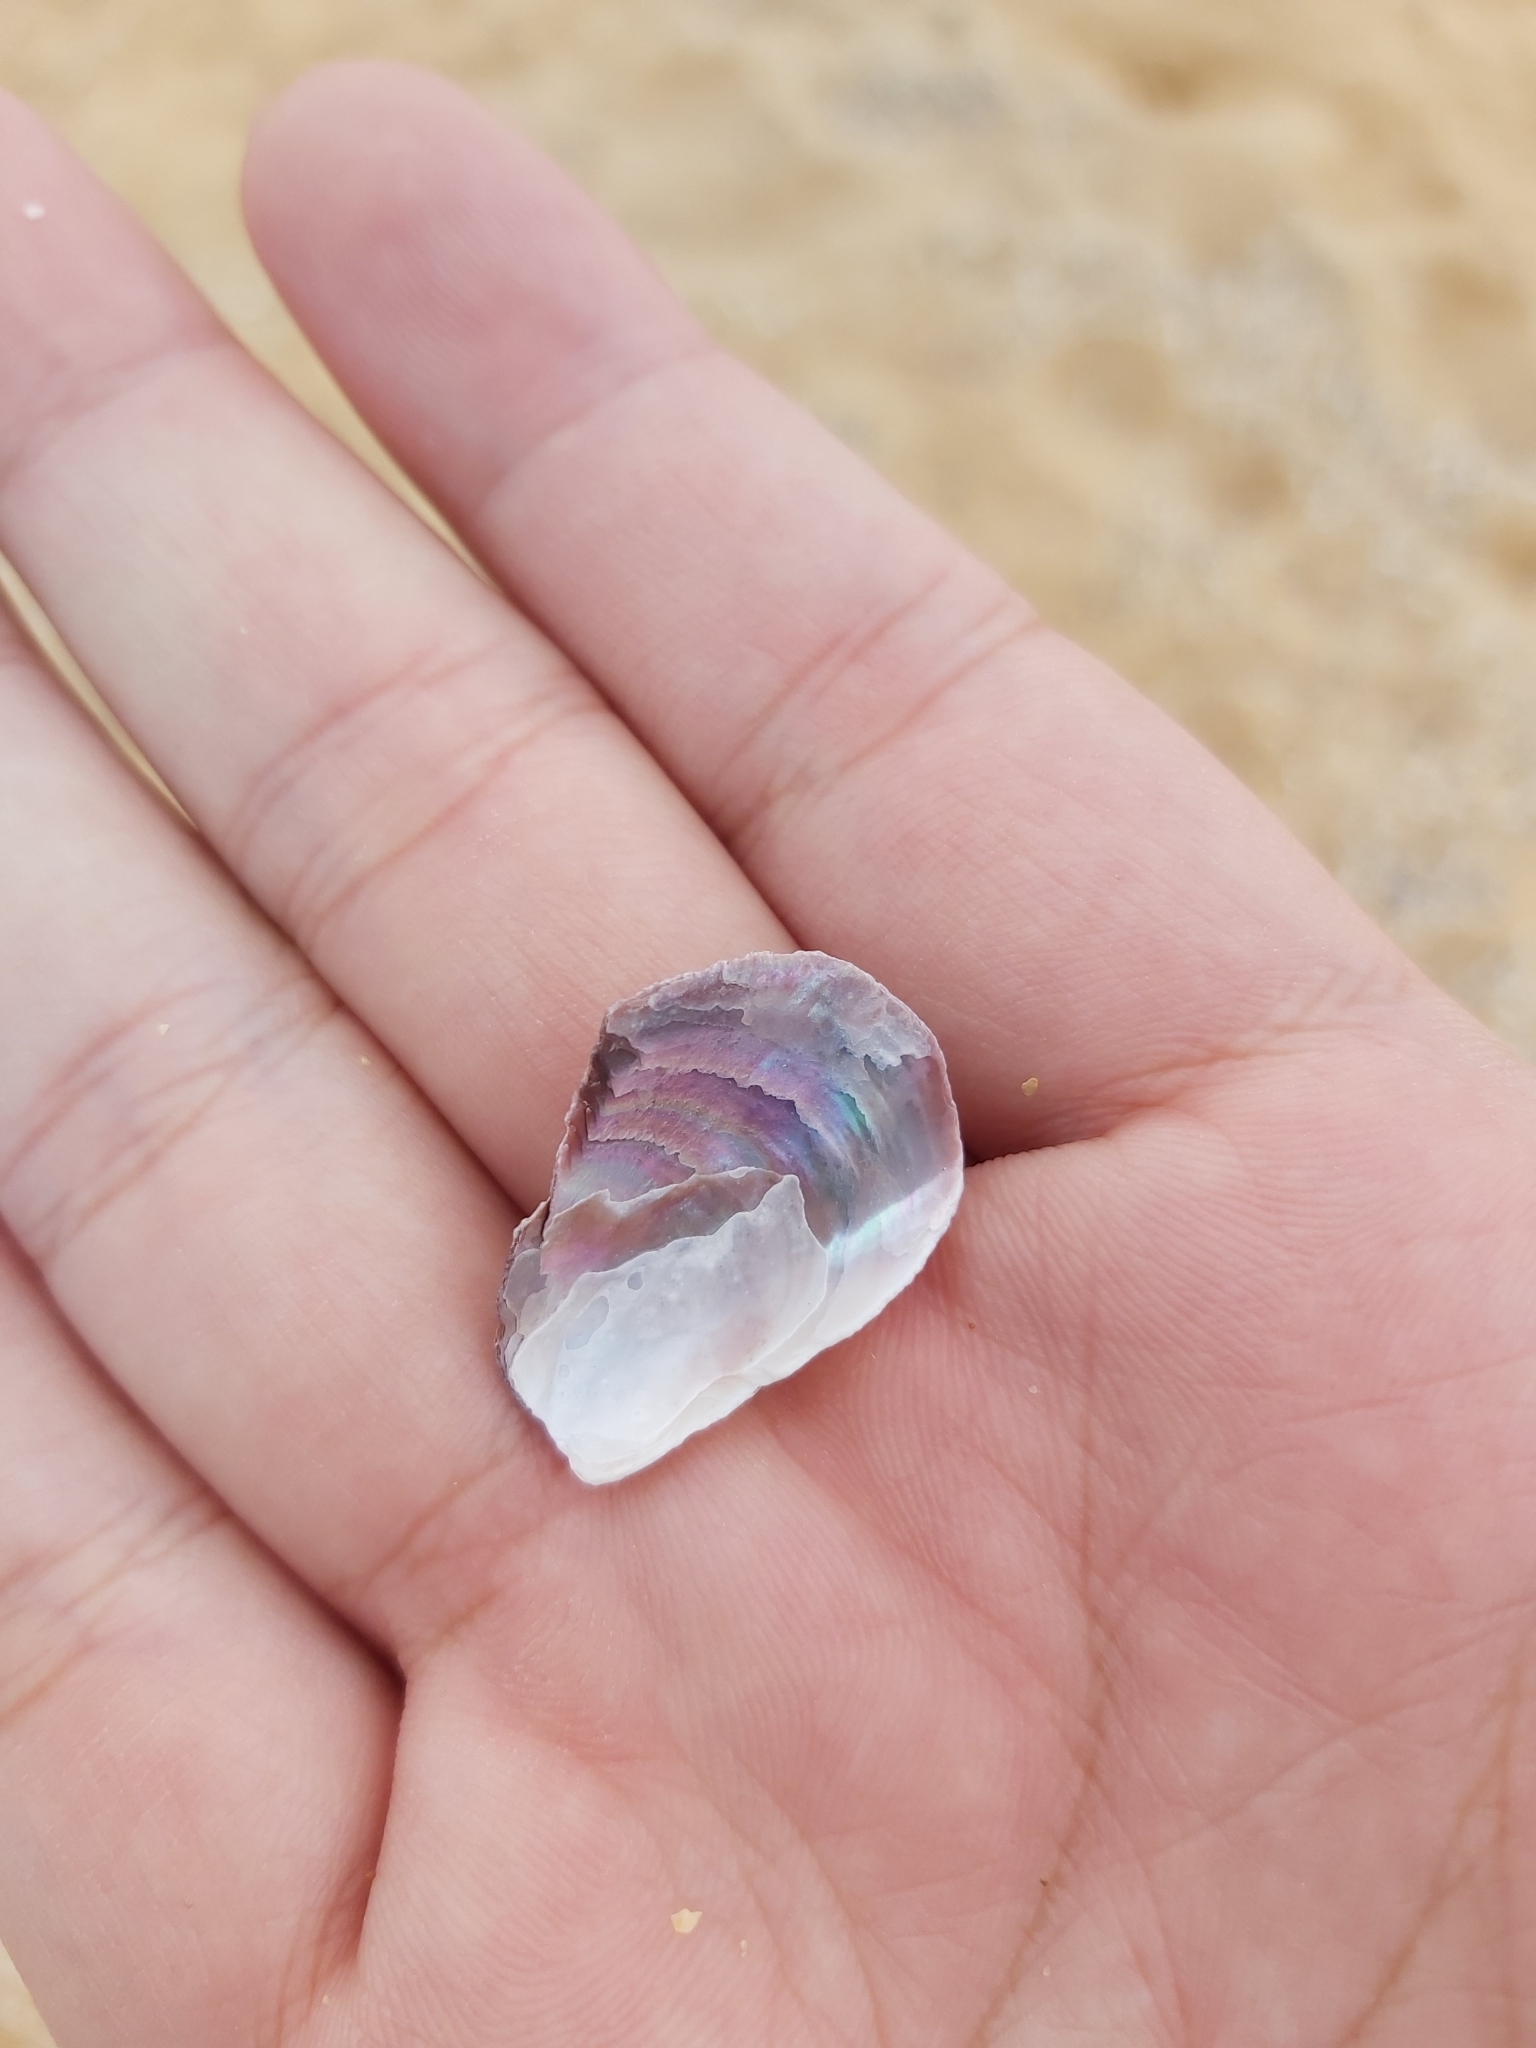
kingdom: Animalia
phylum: Mollusca
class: Bivalvia
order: Mytilida
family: Mytilidae
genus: Trichomya
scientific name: Trichomya hirsuta
